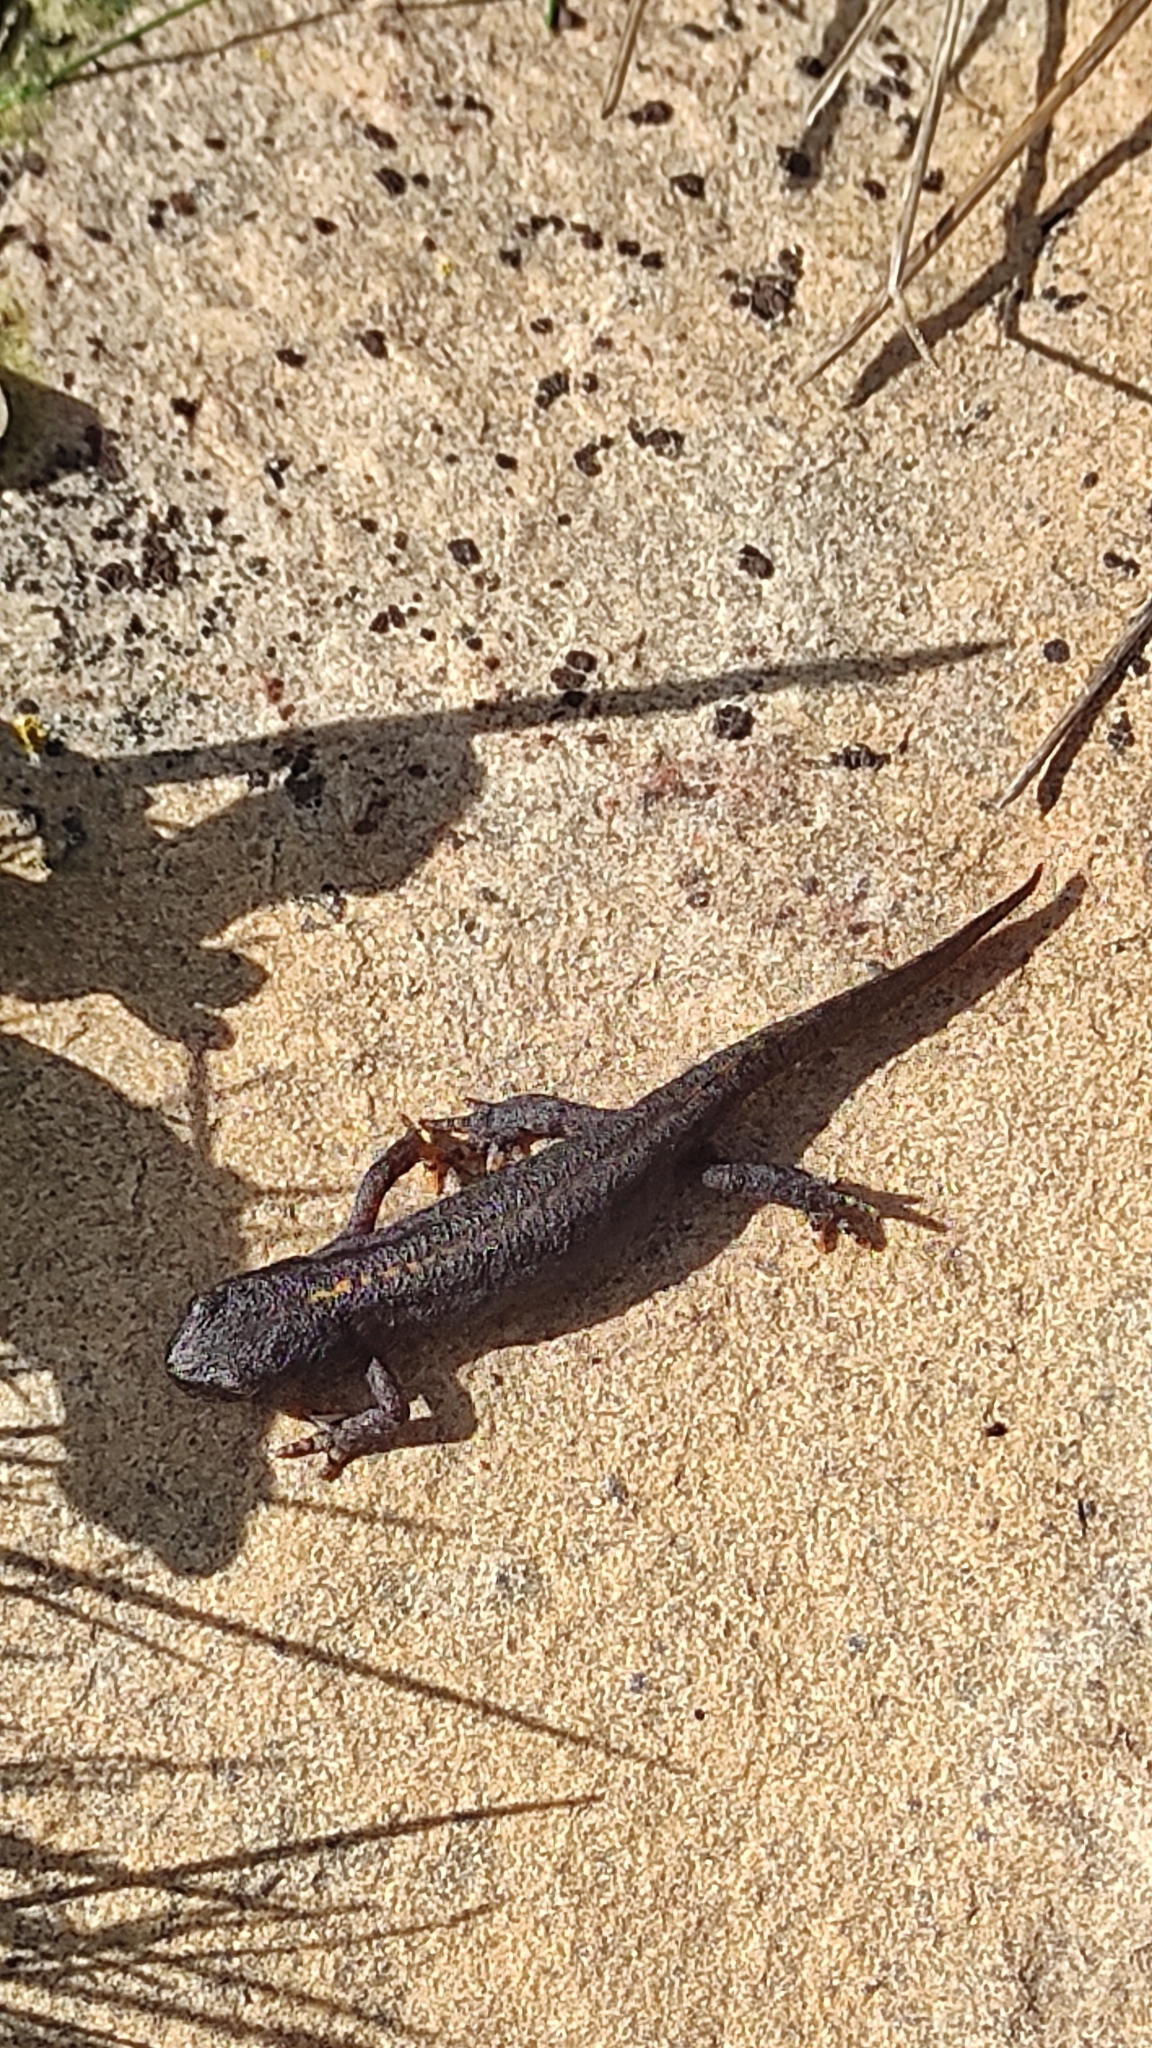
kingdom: Animalia
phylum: Chordata
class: Amphibia
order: Caudata
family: Salamandridae
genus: Ichthyosaura
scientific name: Ichthyosaura alpestris
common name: Alpine newt
